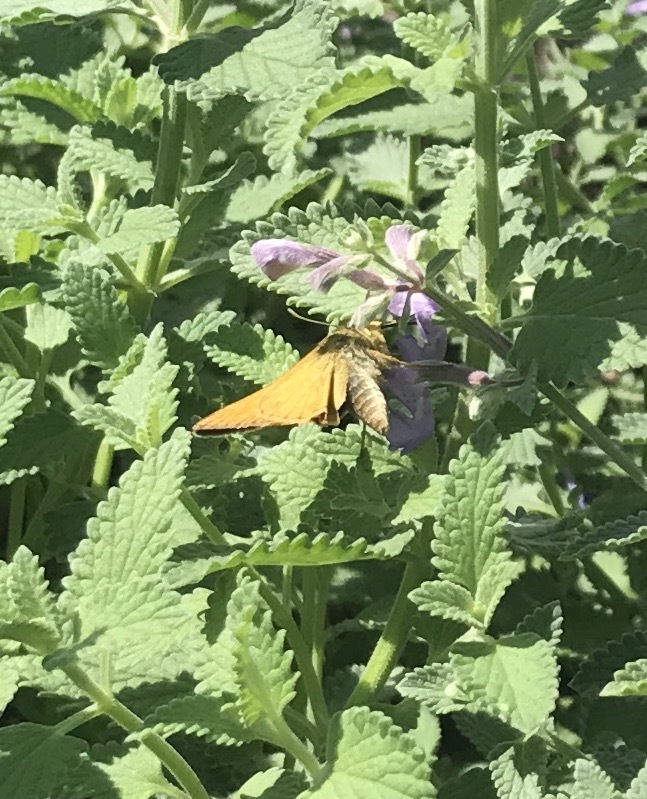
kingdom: Animalia
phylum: Arthropoda
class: Insecta
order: Lepidoptera
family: Hesperiidae
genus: Atalopedes
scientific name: Atalopedes
